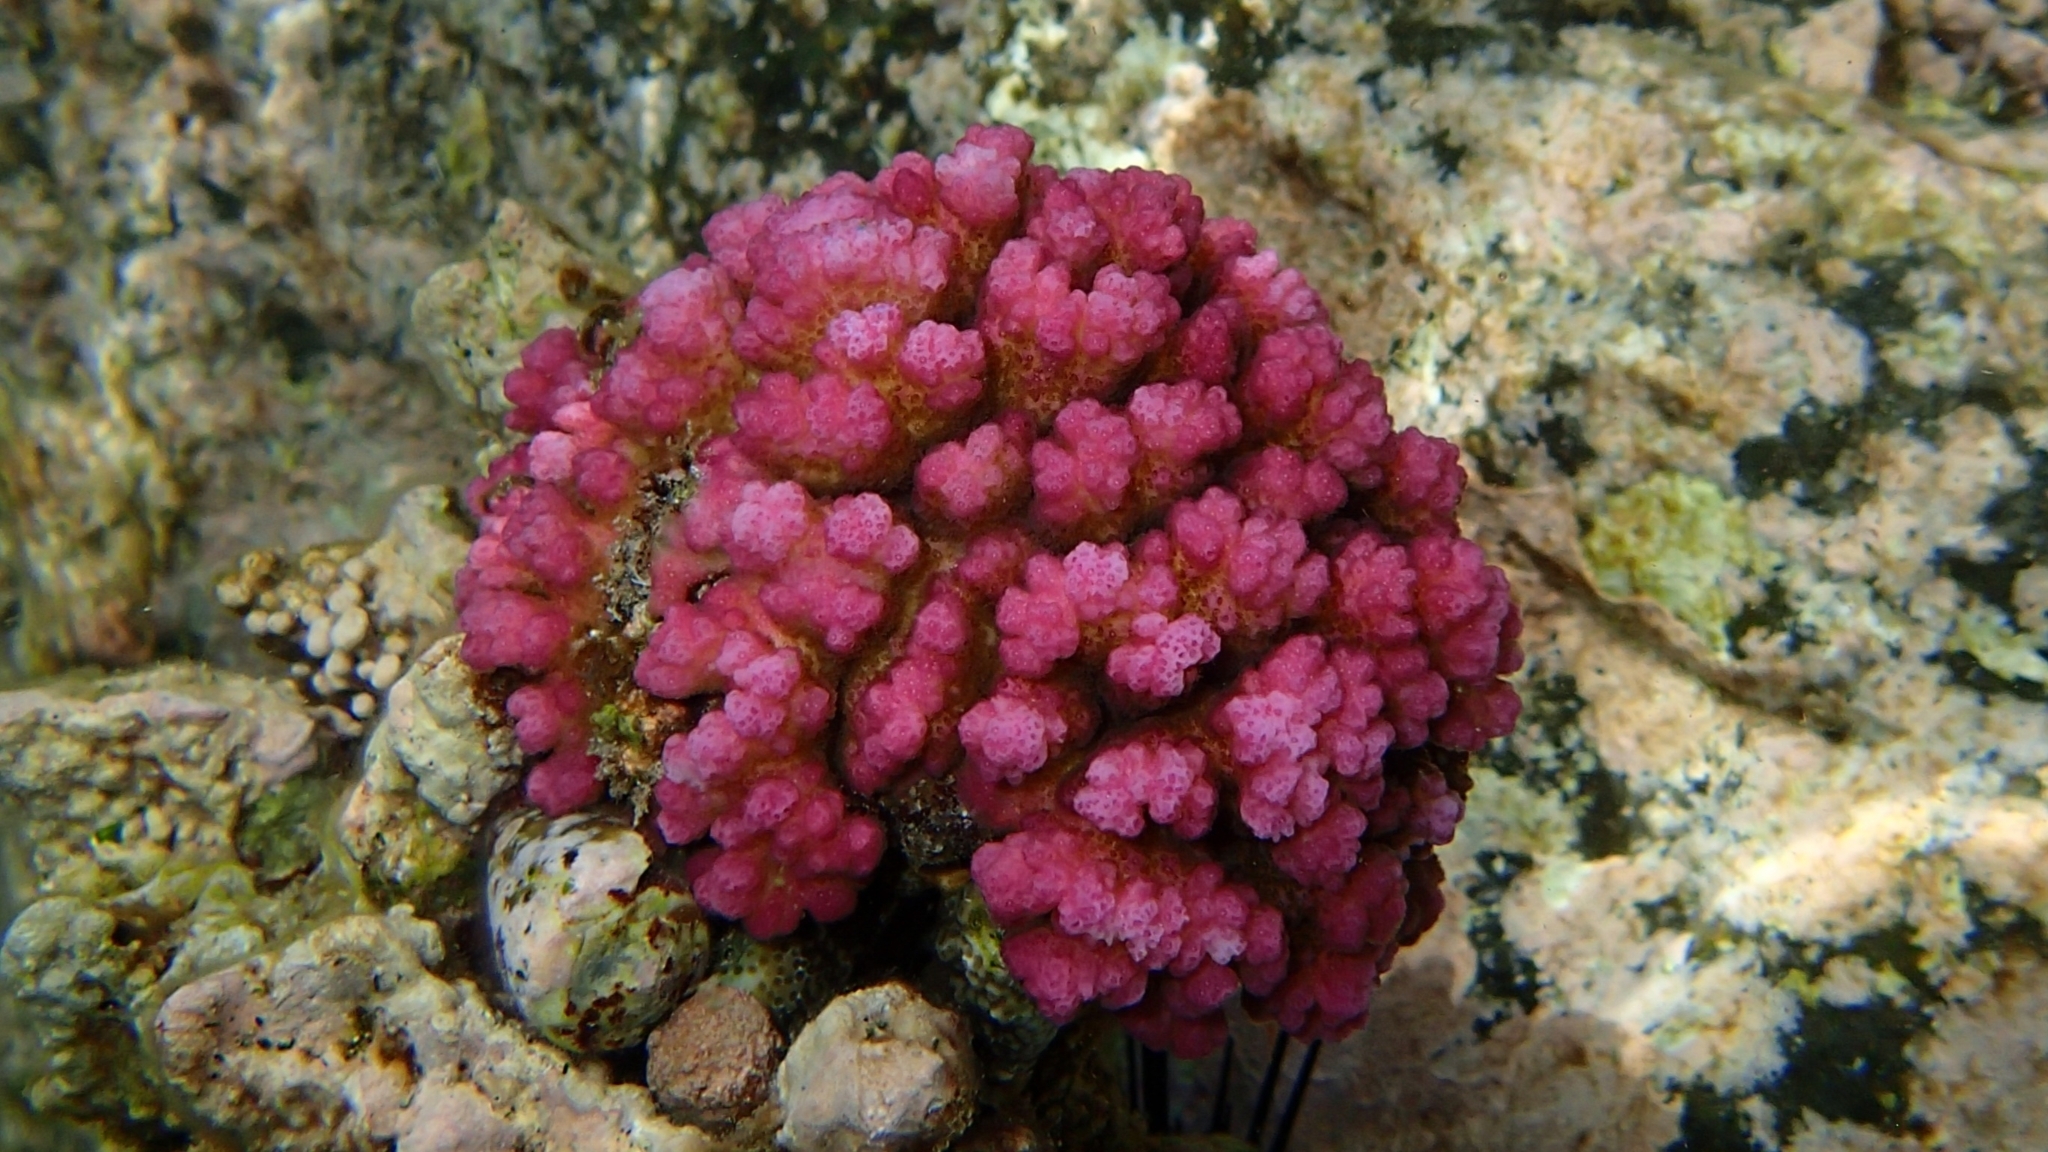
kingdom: Animalia
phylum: Cnidaria
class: Anthozoa
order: Scleractinia
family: Pocilloporidae
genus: Pocillopora
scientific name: Pocillopora verrucosa
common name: Cauliflower coral
